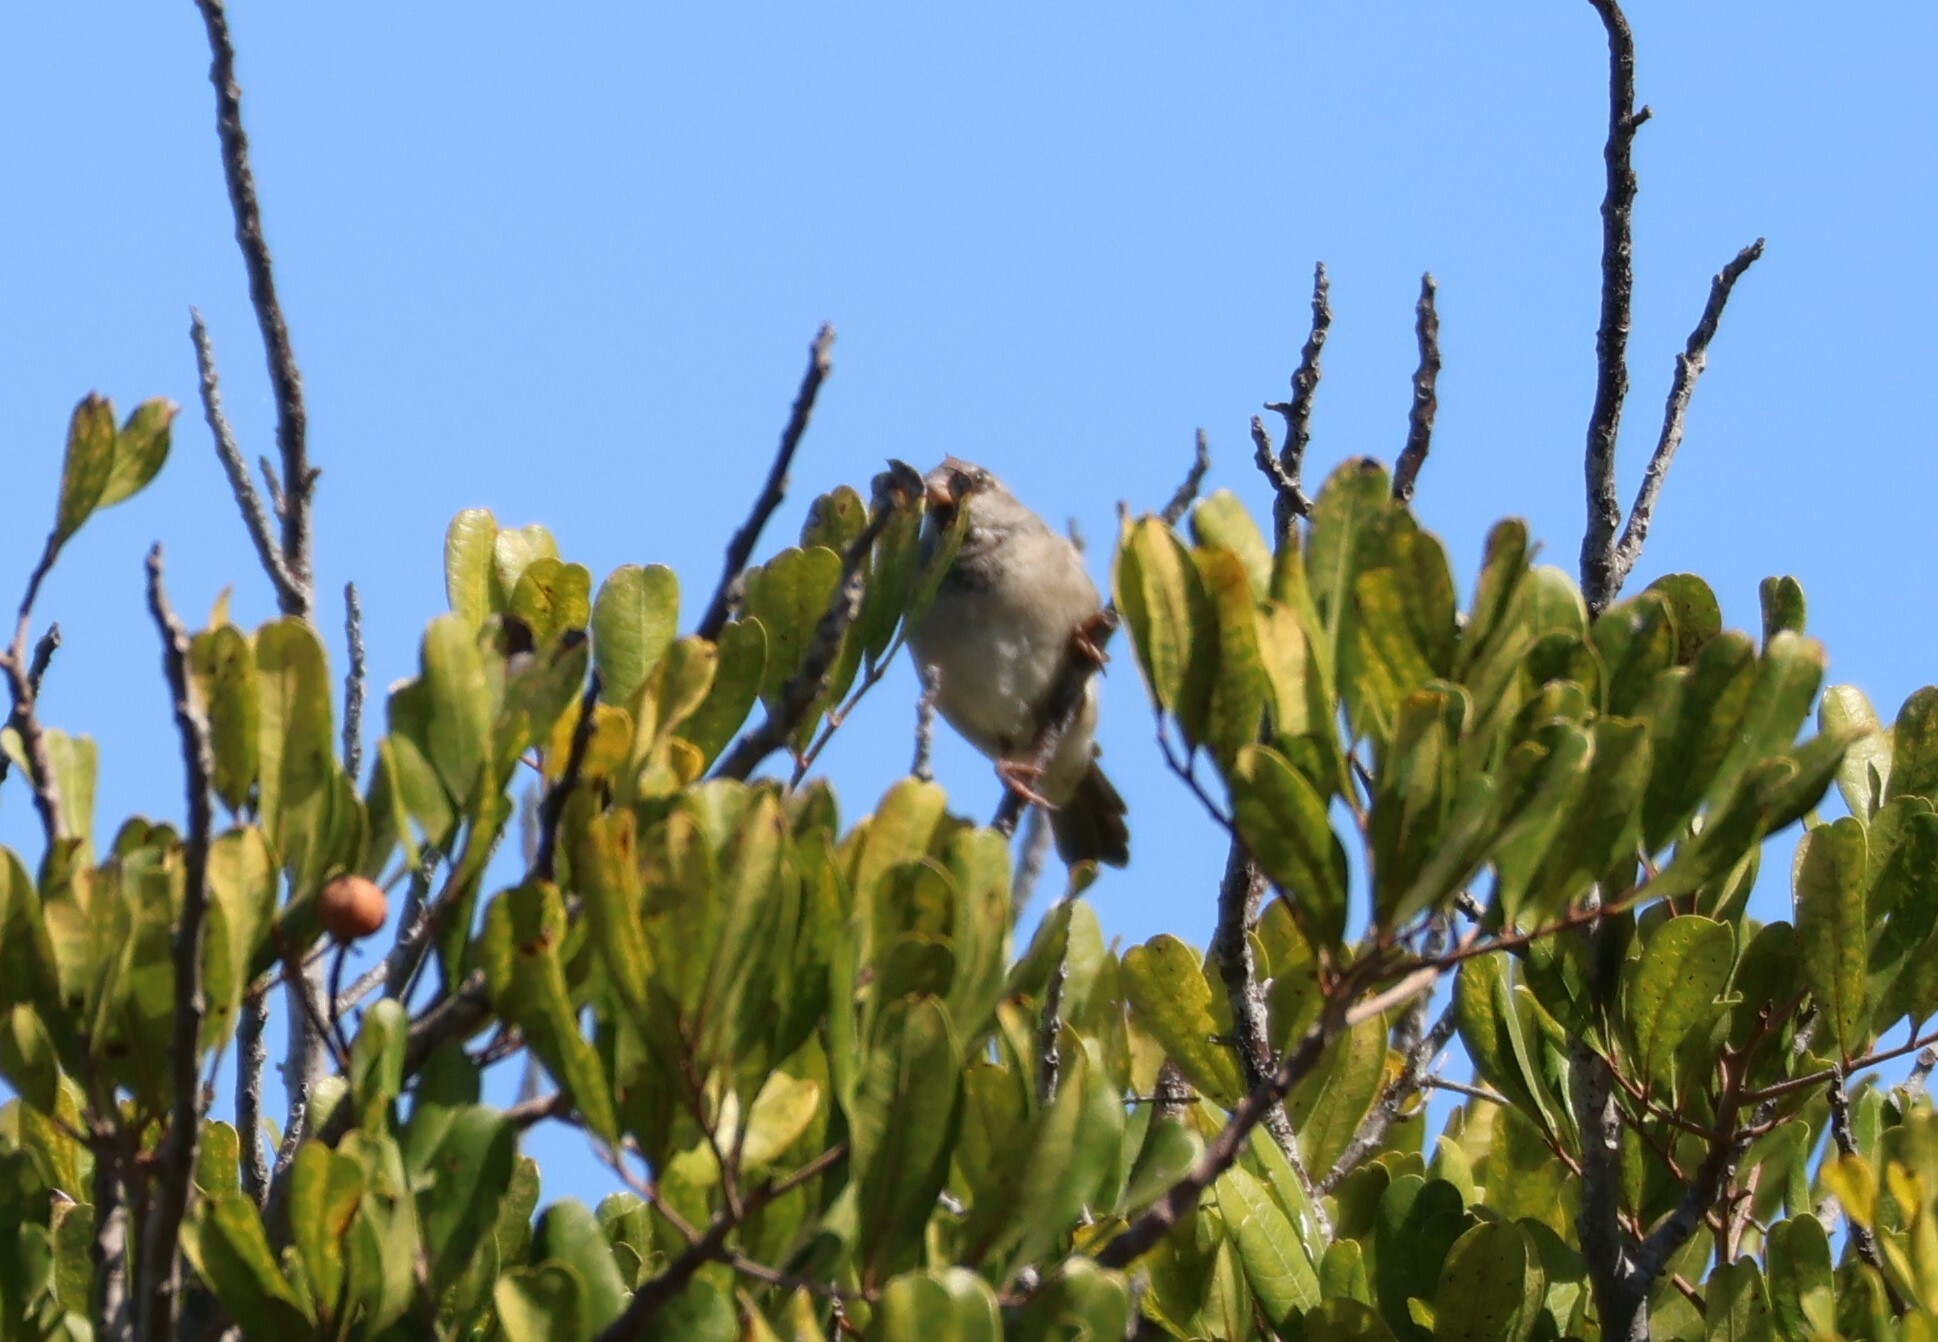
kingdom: Animalia
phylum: Chordata
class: Aves
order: Passeriformes
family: Passeridae
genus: Passer
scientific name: Passer domesticus
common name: House sparrow
